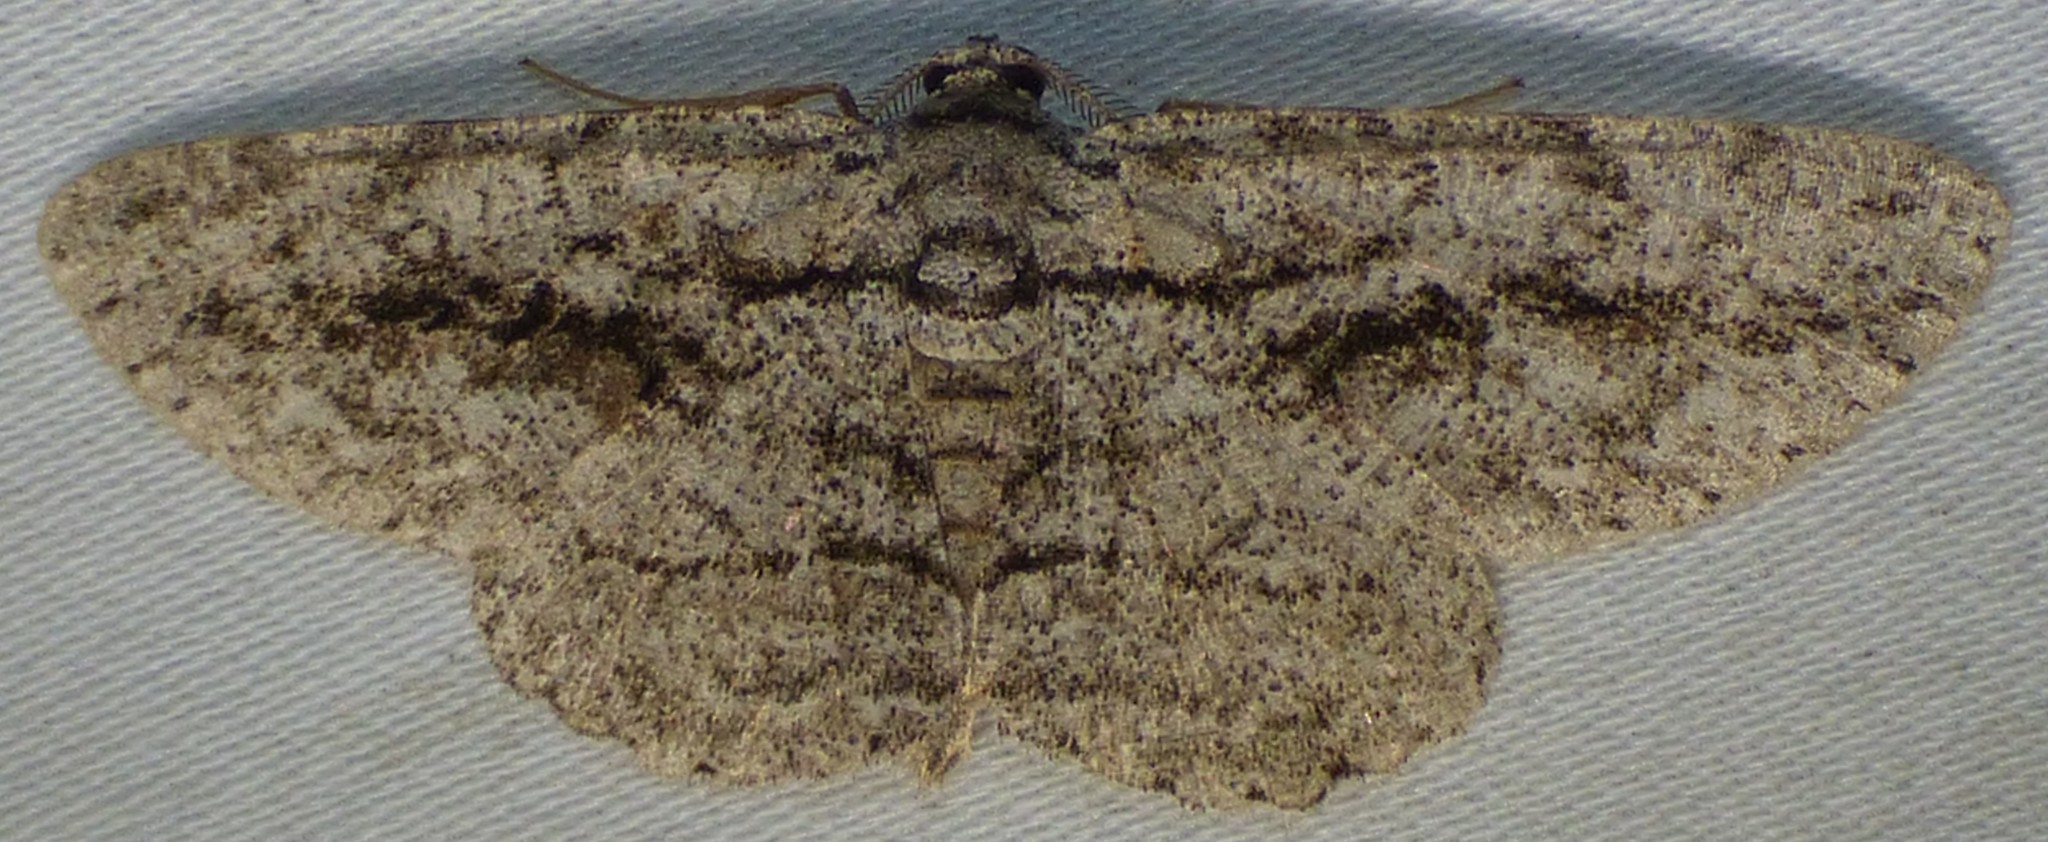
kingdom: Animalia
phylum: Arthropoda
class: Insecta
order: Lepidoptera
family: Geometridae
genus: Anavitrinella
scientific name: Anavitrinella pampinaria
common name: Common gray
